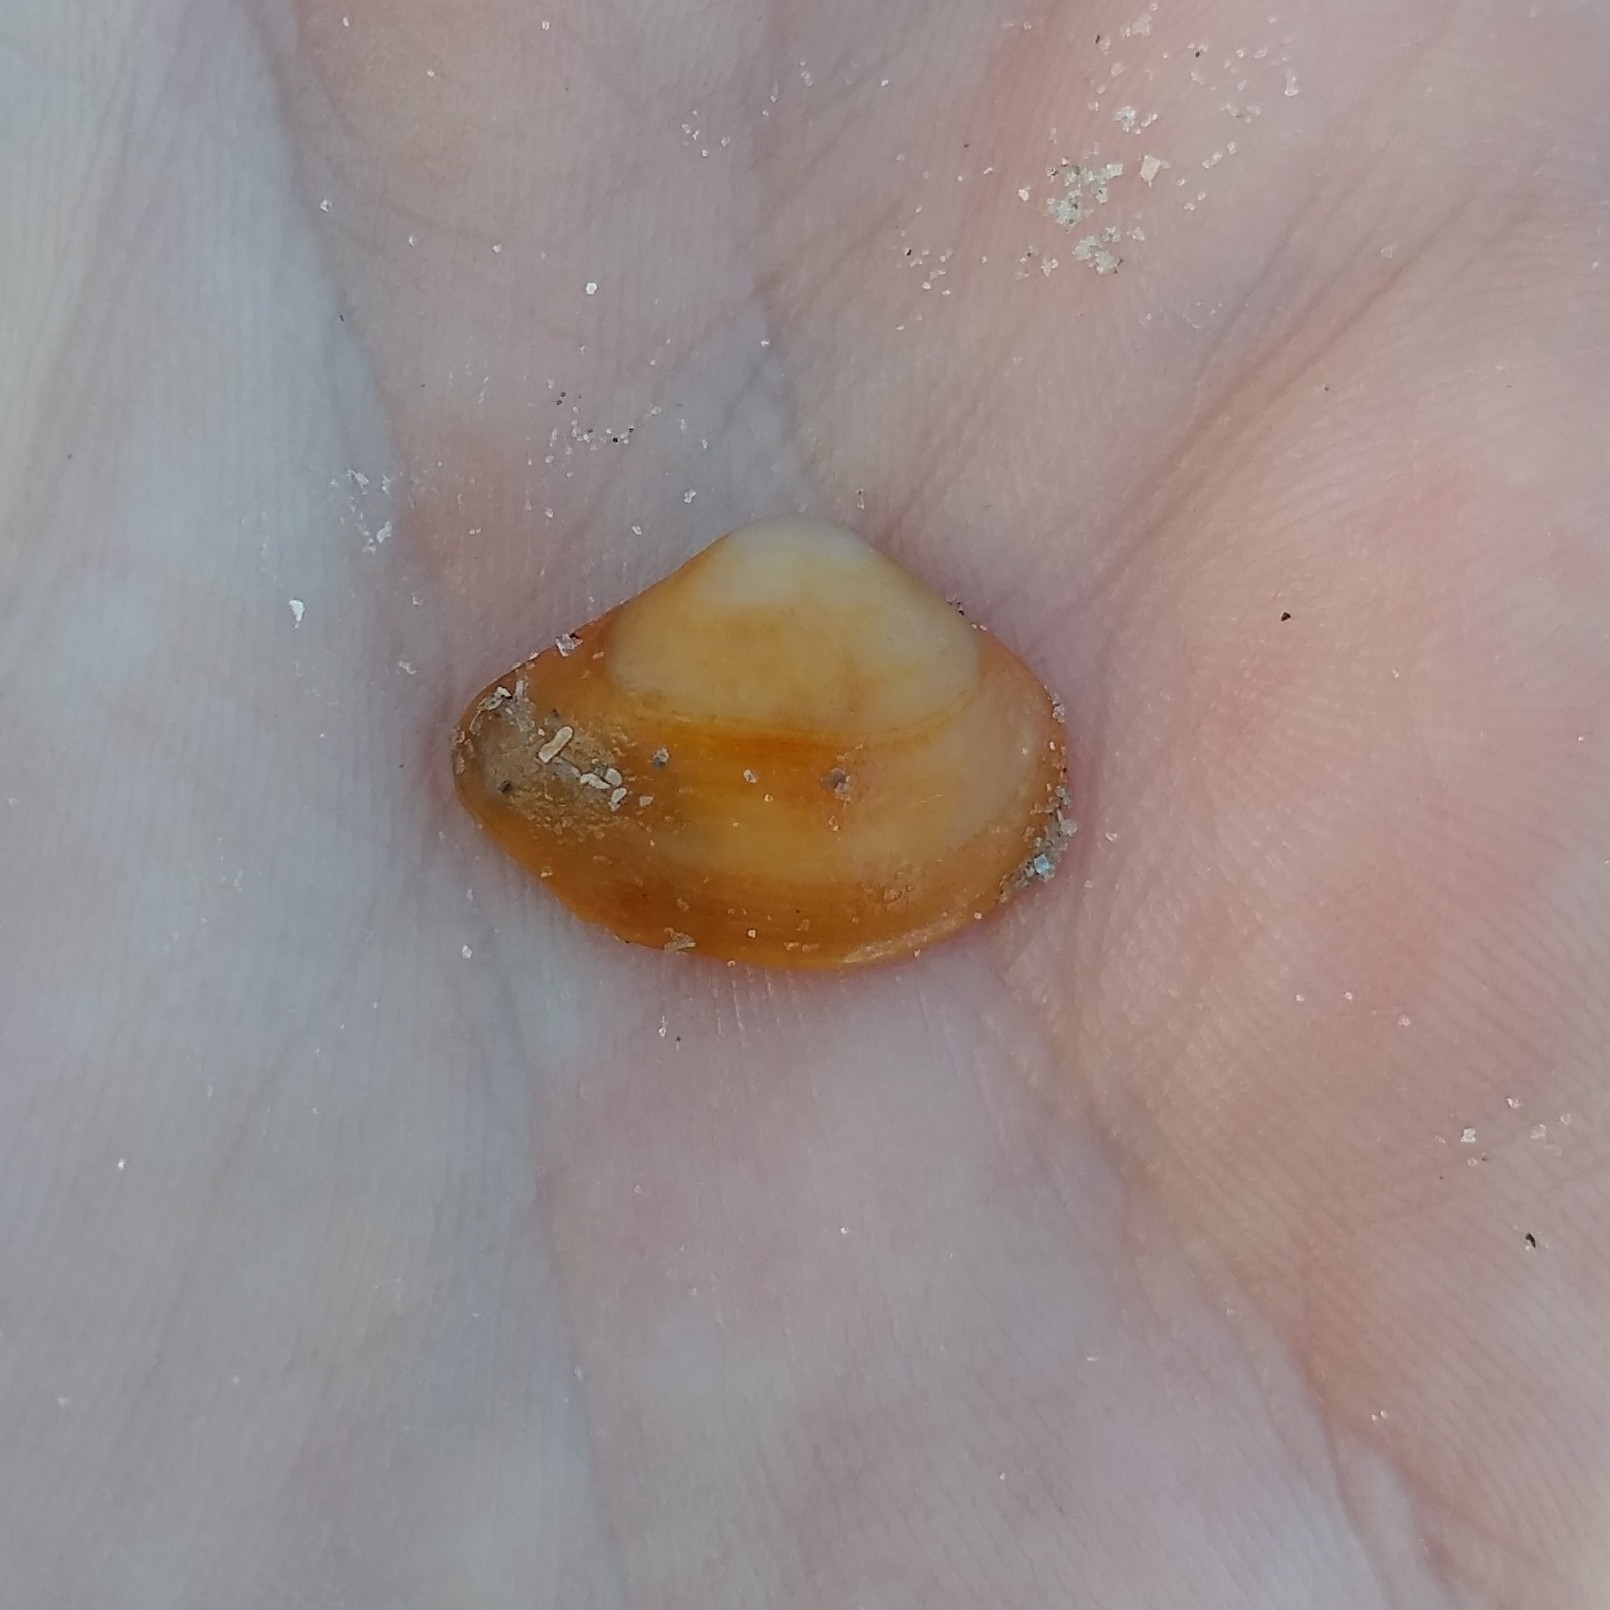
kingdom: Animalia
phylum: Mollusca
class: Bivalvia
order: Cardiida
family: Donacidae
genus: Donax
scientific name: Donax variabilis
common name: Butterfly shell
